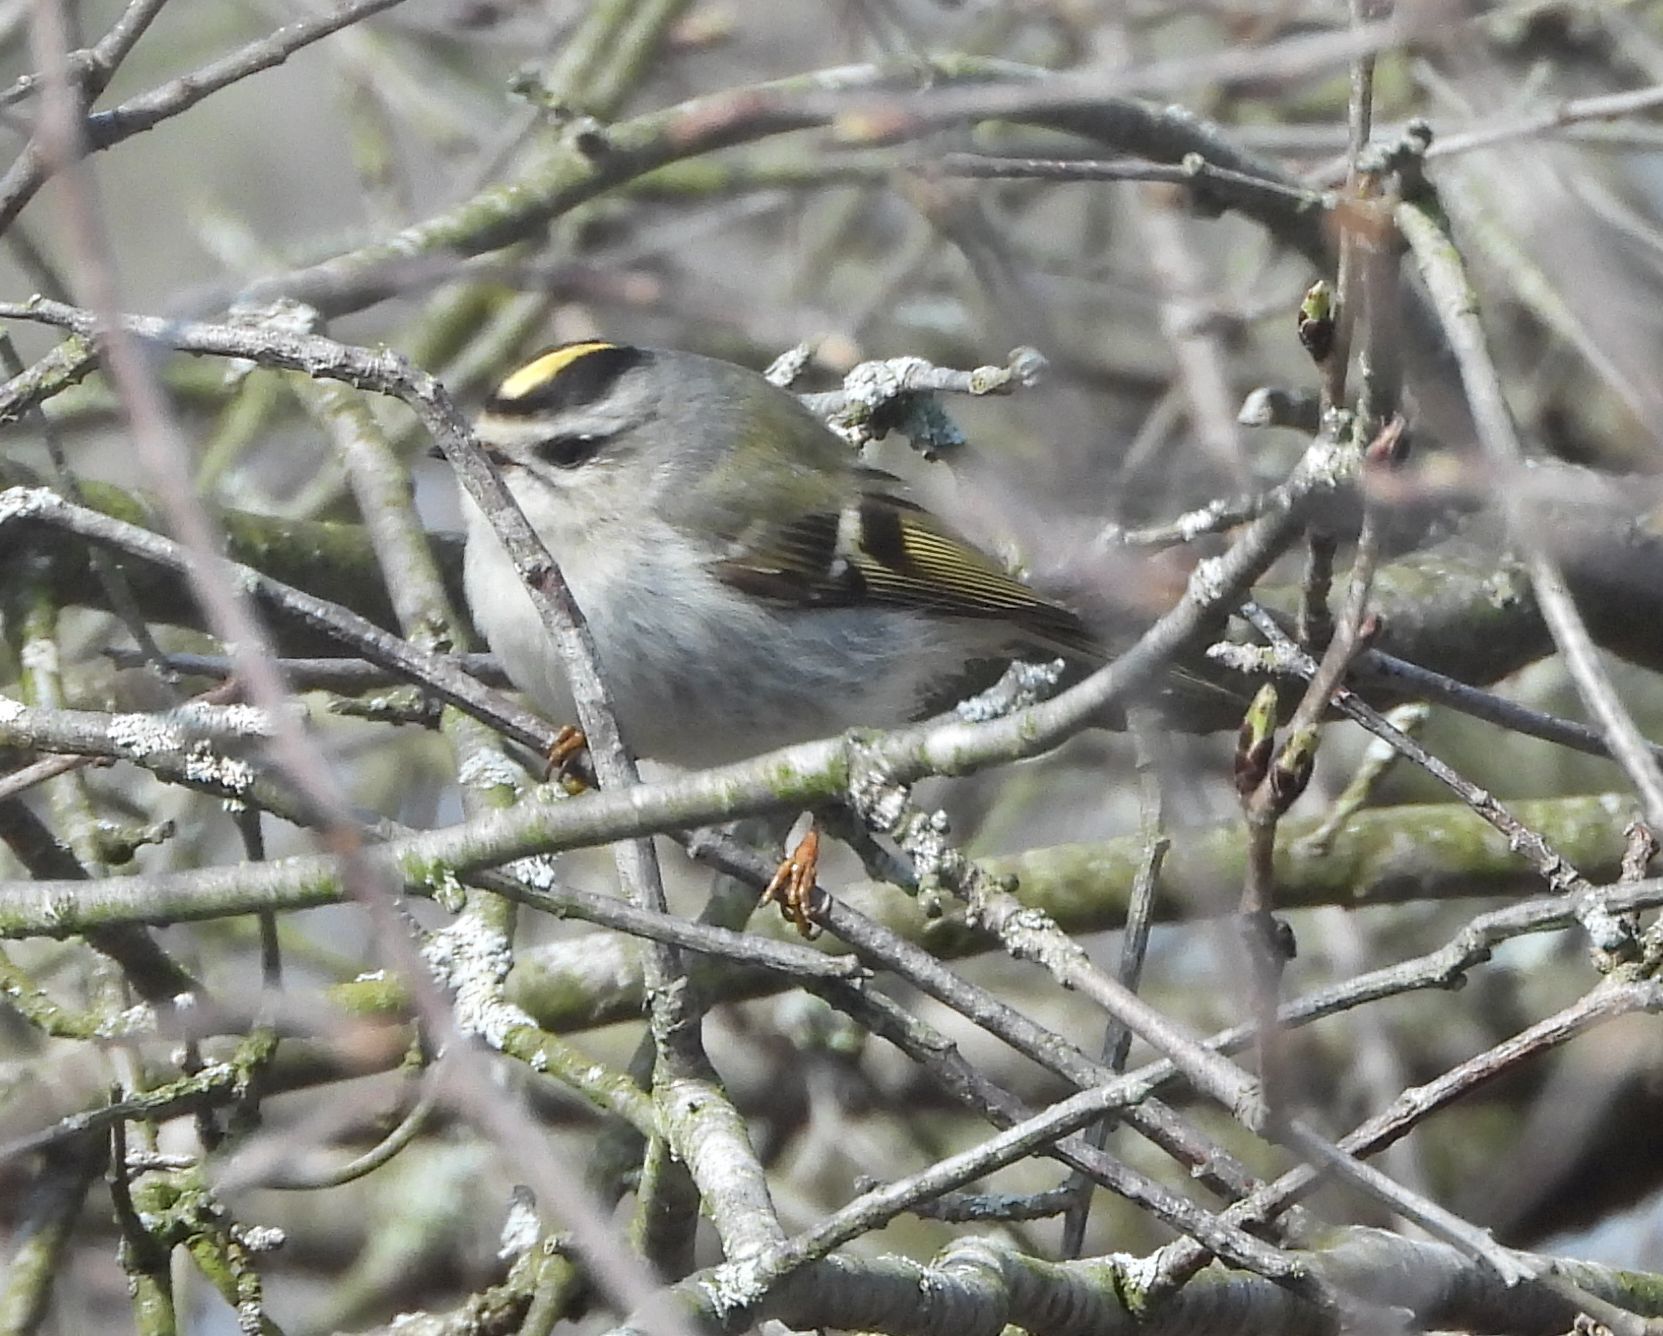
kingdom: Animalia
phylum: Chordata
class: Aves
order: Passeriformes
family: Regulidae
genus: Regulus
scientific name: Regulus satrapa
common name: Golden-crowned kinglet
